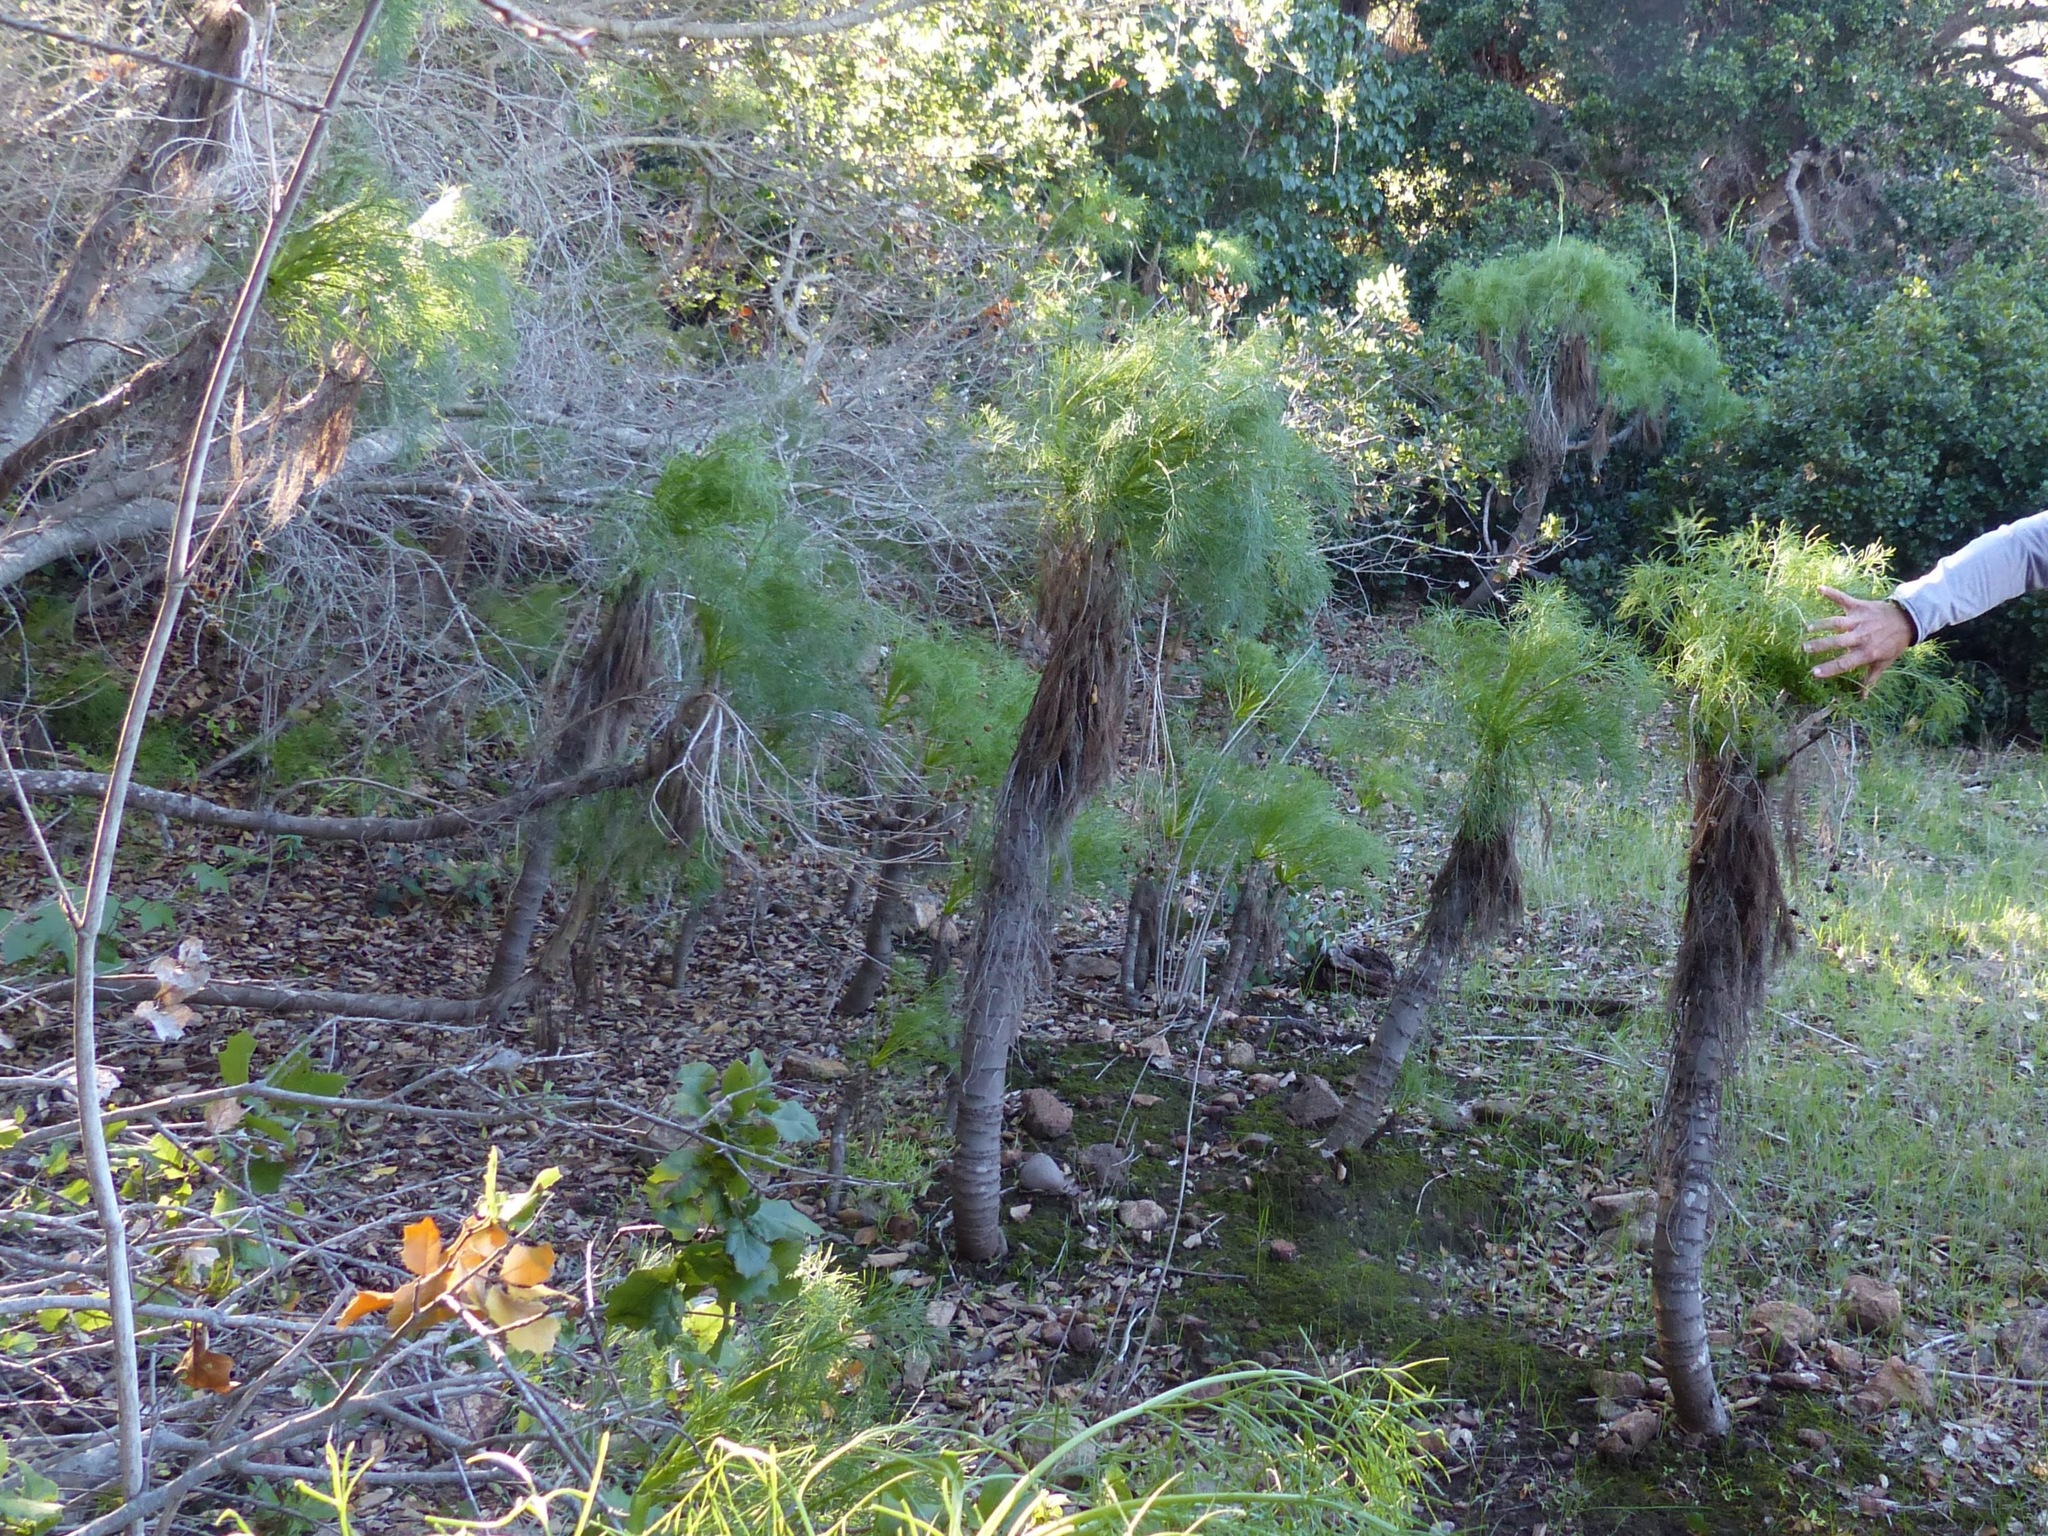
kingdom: Plantae
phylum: Tracheophyta
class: Magnoliopsida
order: Asterales
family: Asteraceae
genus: Coreopsis
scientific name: Coreopsis gigantea
